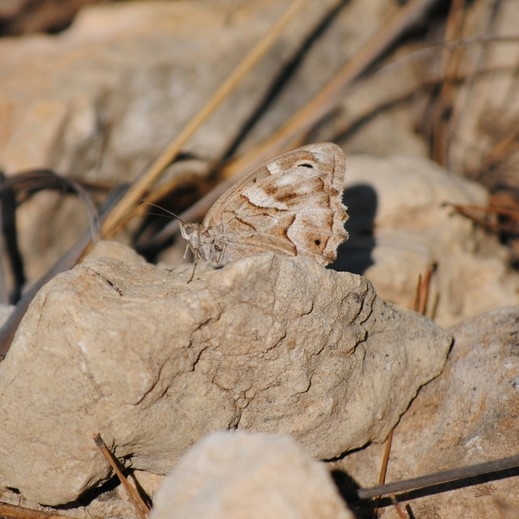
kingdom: Animalia
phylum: Arthropoda
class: Insecta
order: Lepidoptera
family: Nymphalidae
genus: Hipparchia
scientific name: Hipparchia fidia
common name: Striped grayling
